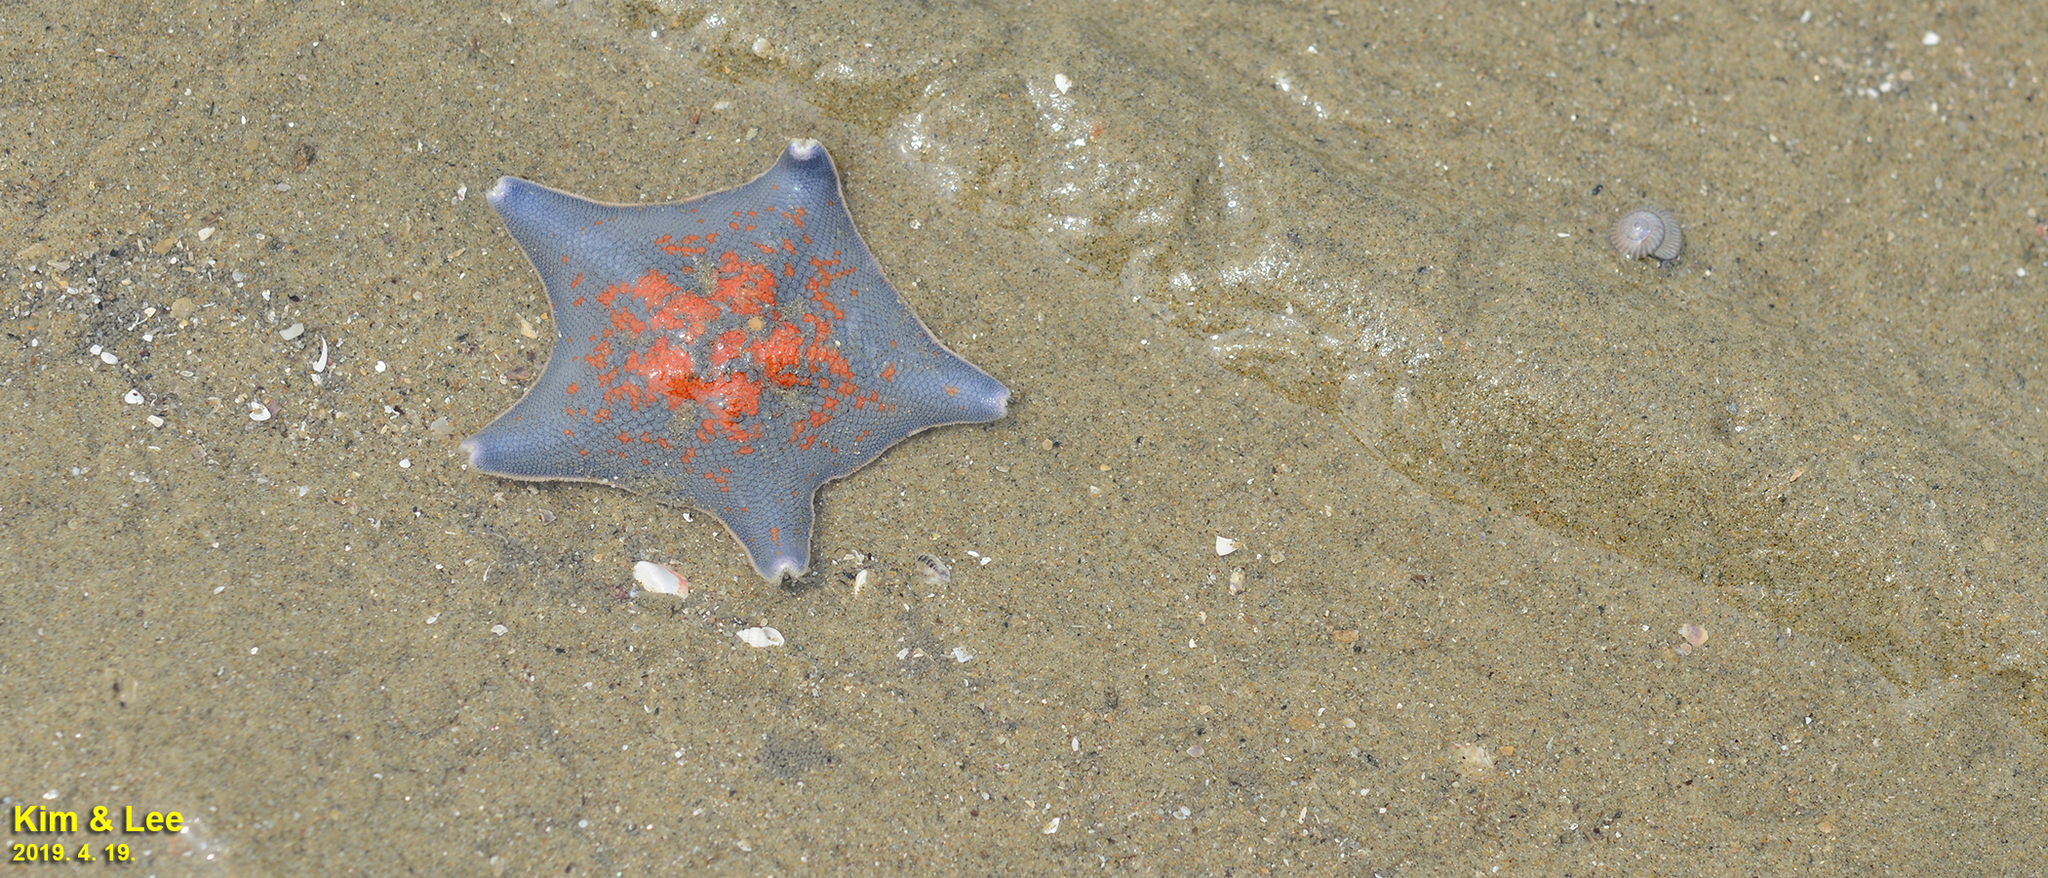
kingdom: Animalia
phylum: Echinodermata
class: Asteroidea
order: Valvatida
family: Asterinidae
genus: Patiria
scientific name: Patiria pectinifera
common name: Blue bat star
